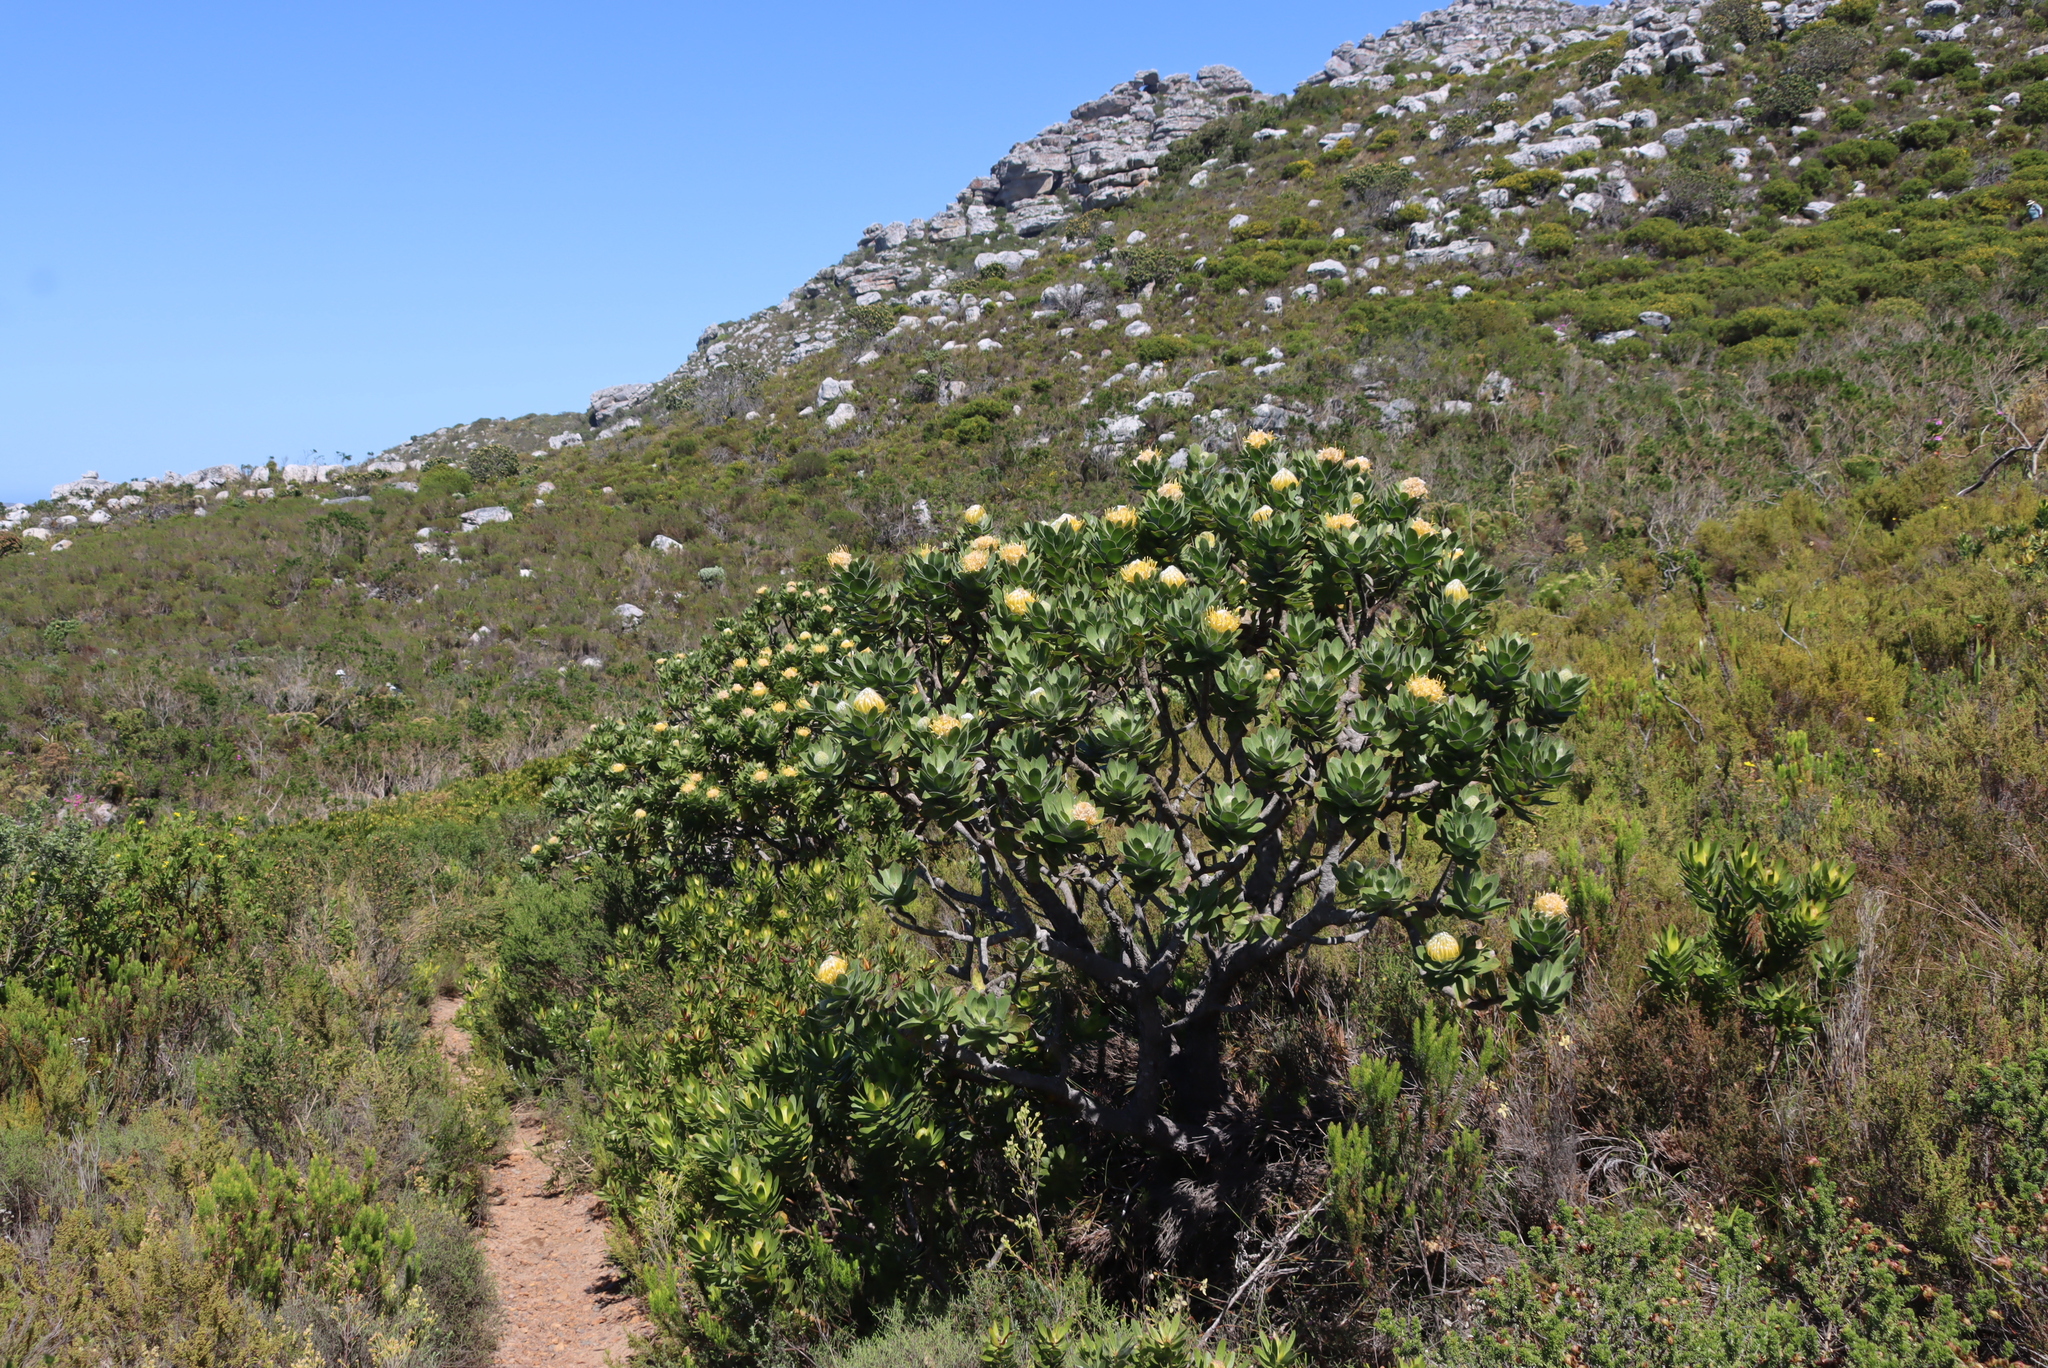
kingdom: Plantae
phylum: Tracheophyta
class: Magnoliopsida
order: Proteales
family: Proteaceae
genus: Leucospermum
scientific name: Leucospermum conocarpodendron
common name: Tree pincushion
